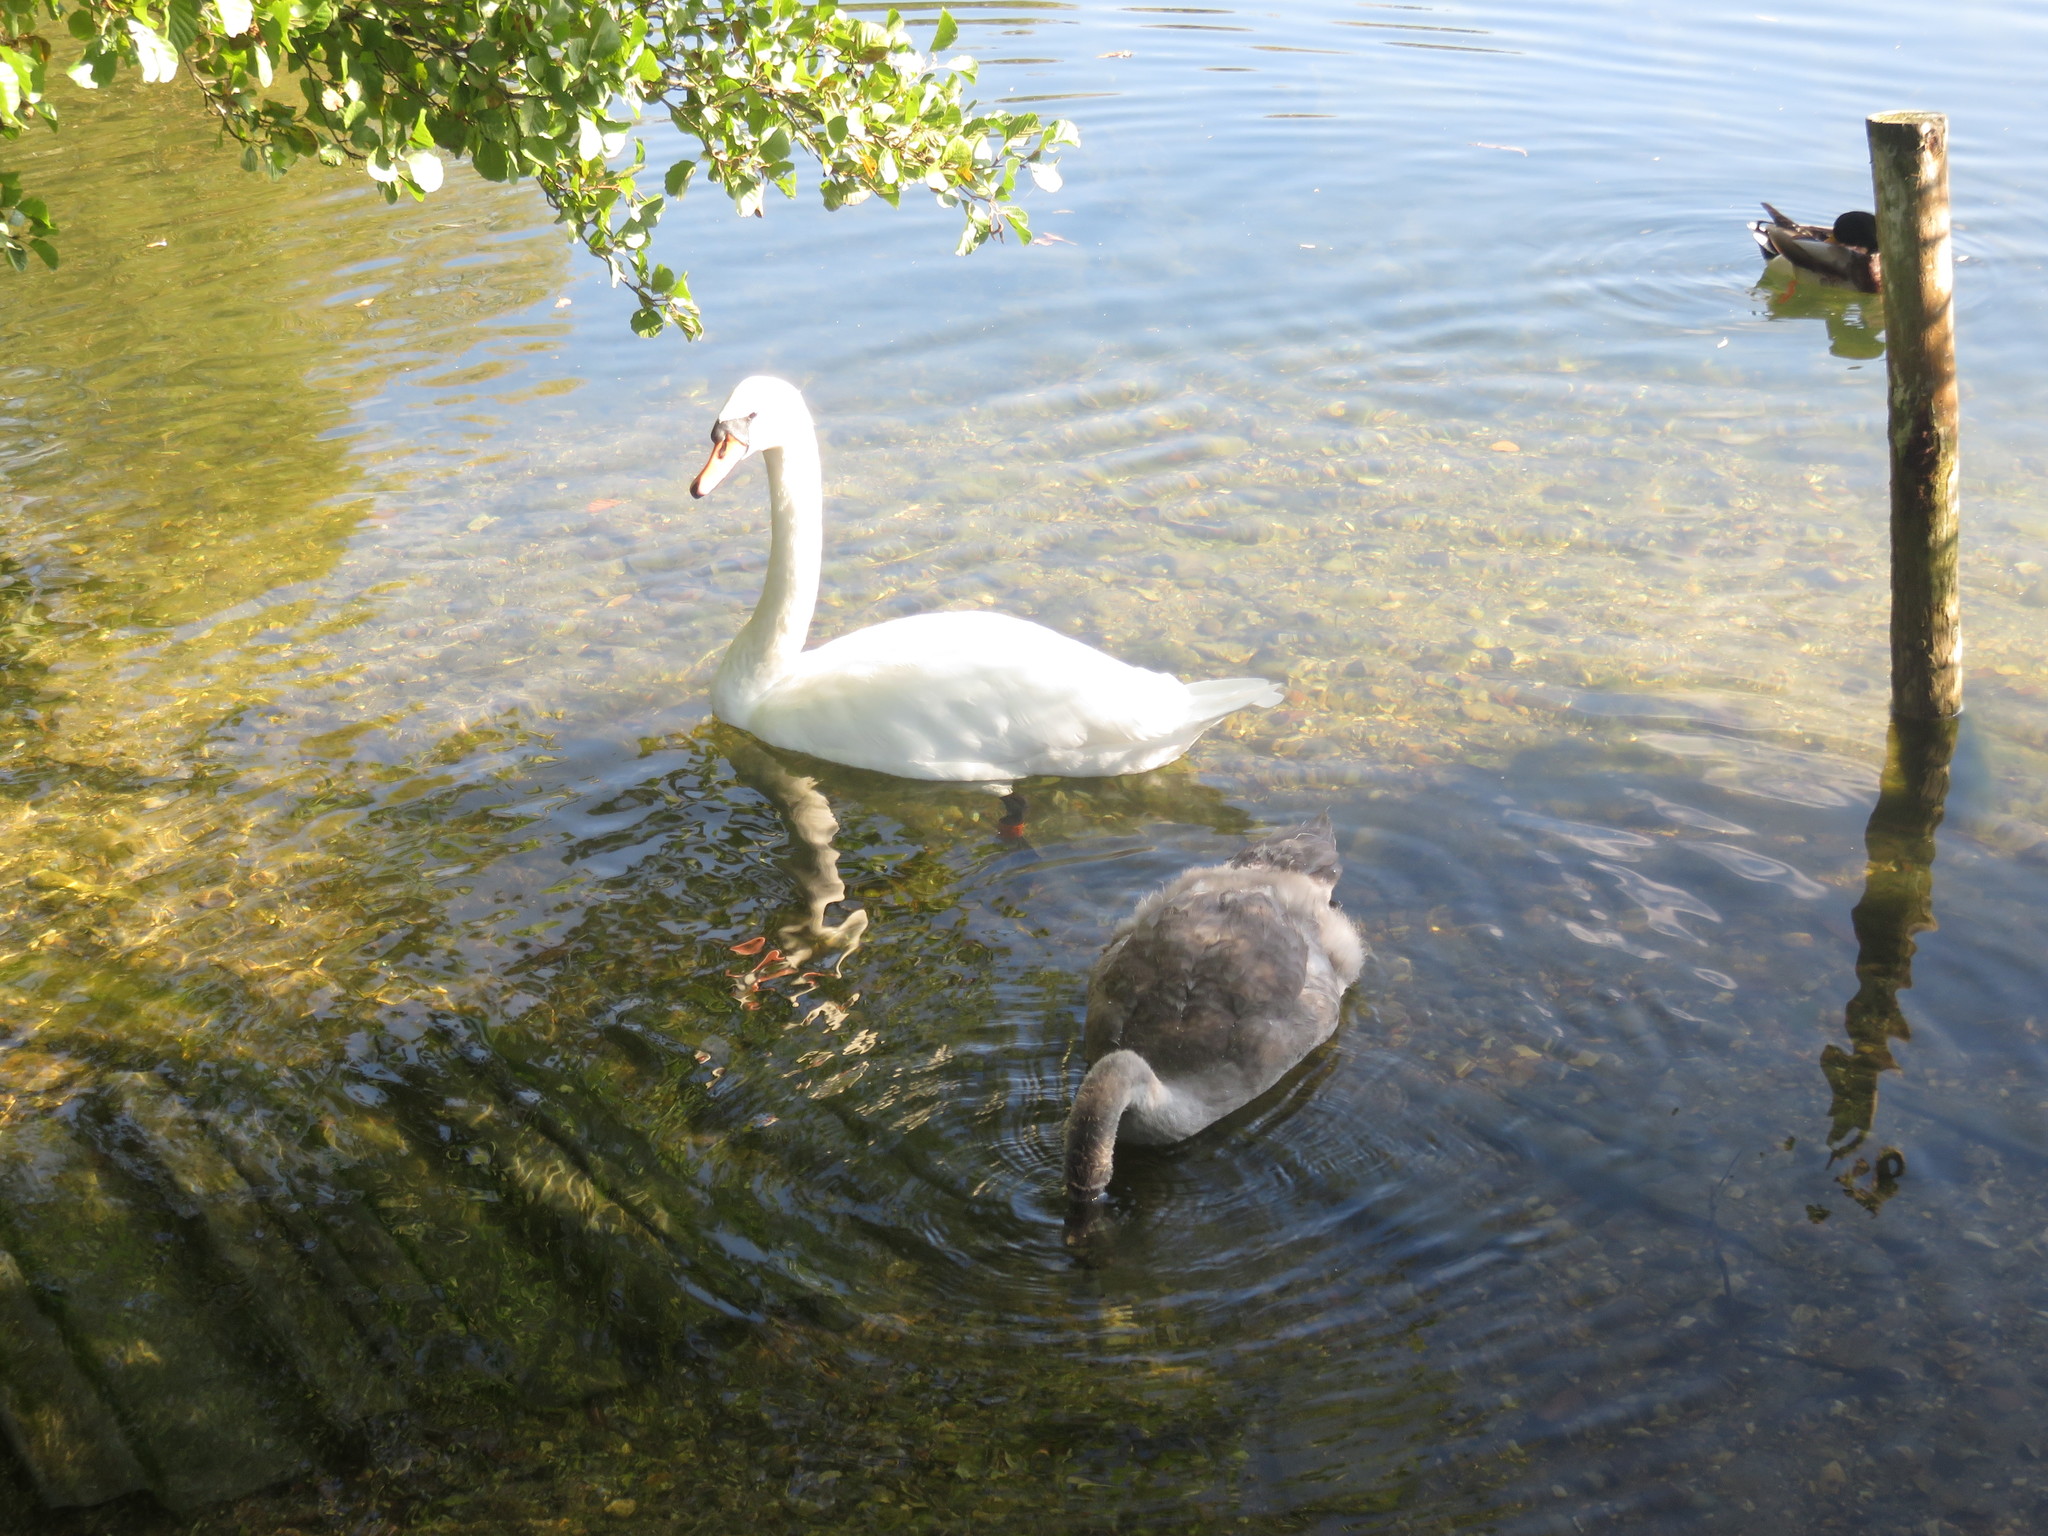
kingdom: Animalia
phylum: Chordata
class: Aves
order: Anseriformes
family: Anatidae
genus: Cygnus
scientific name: Cygnus olor
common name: Mute swan
